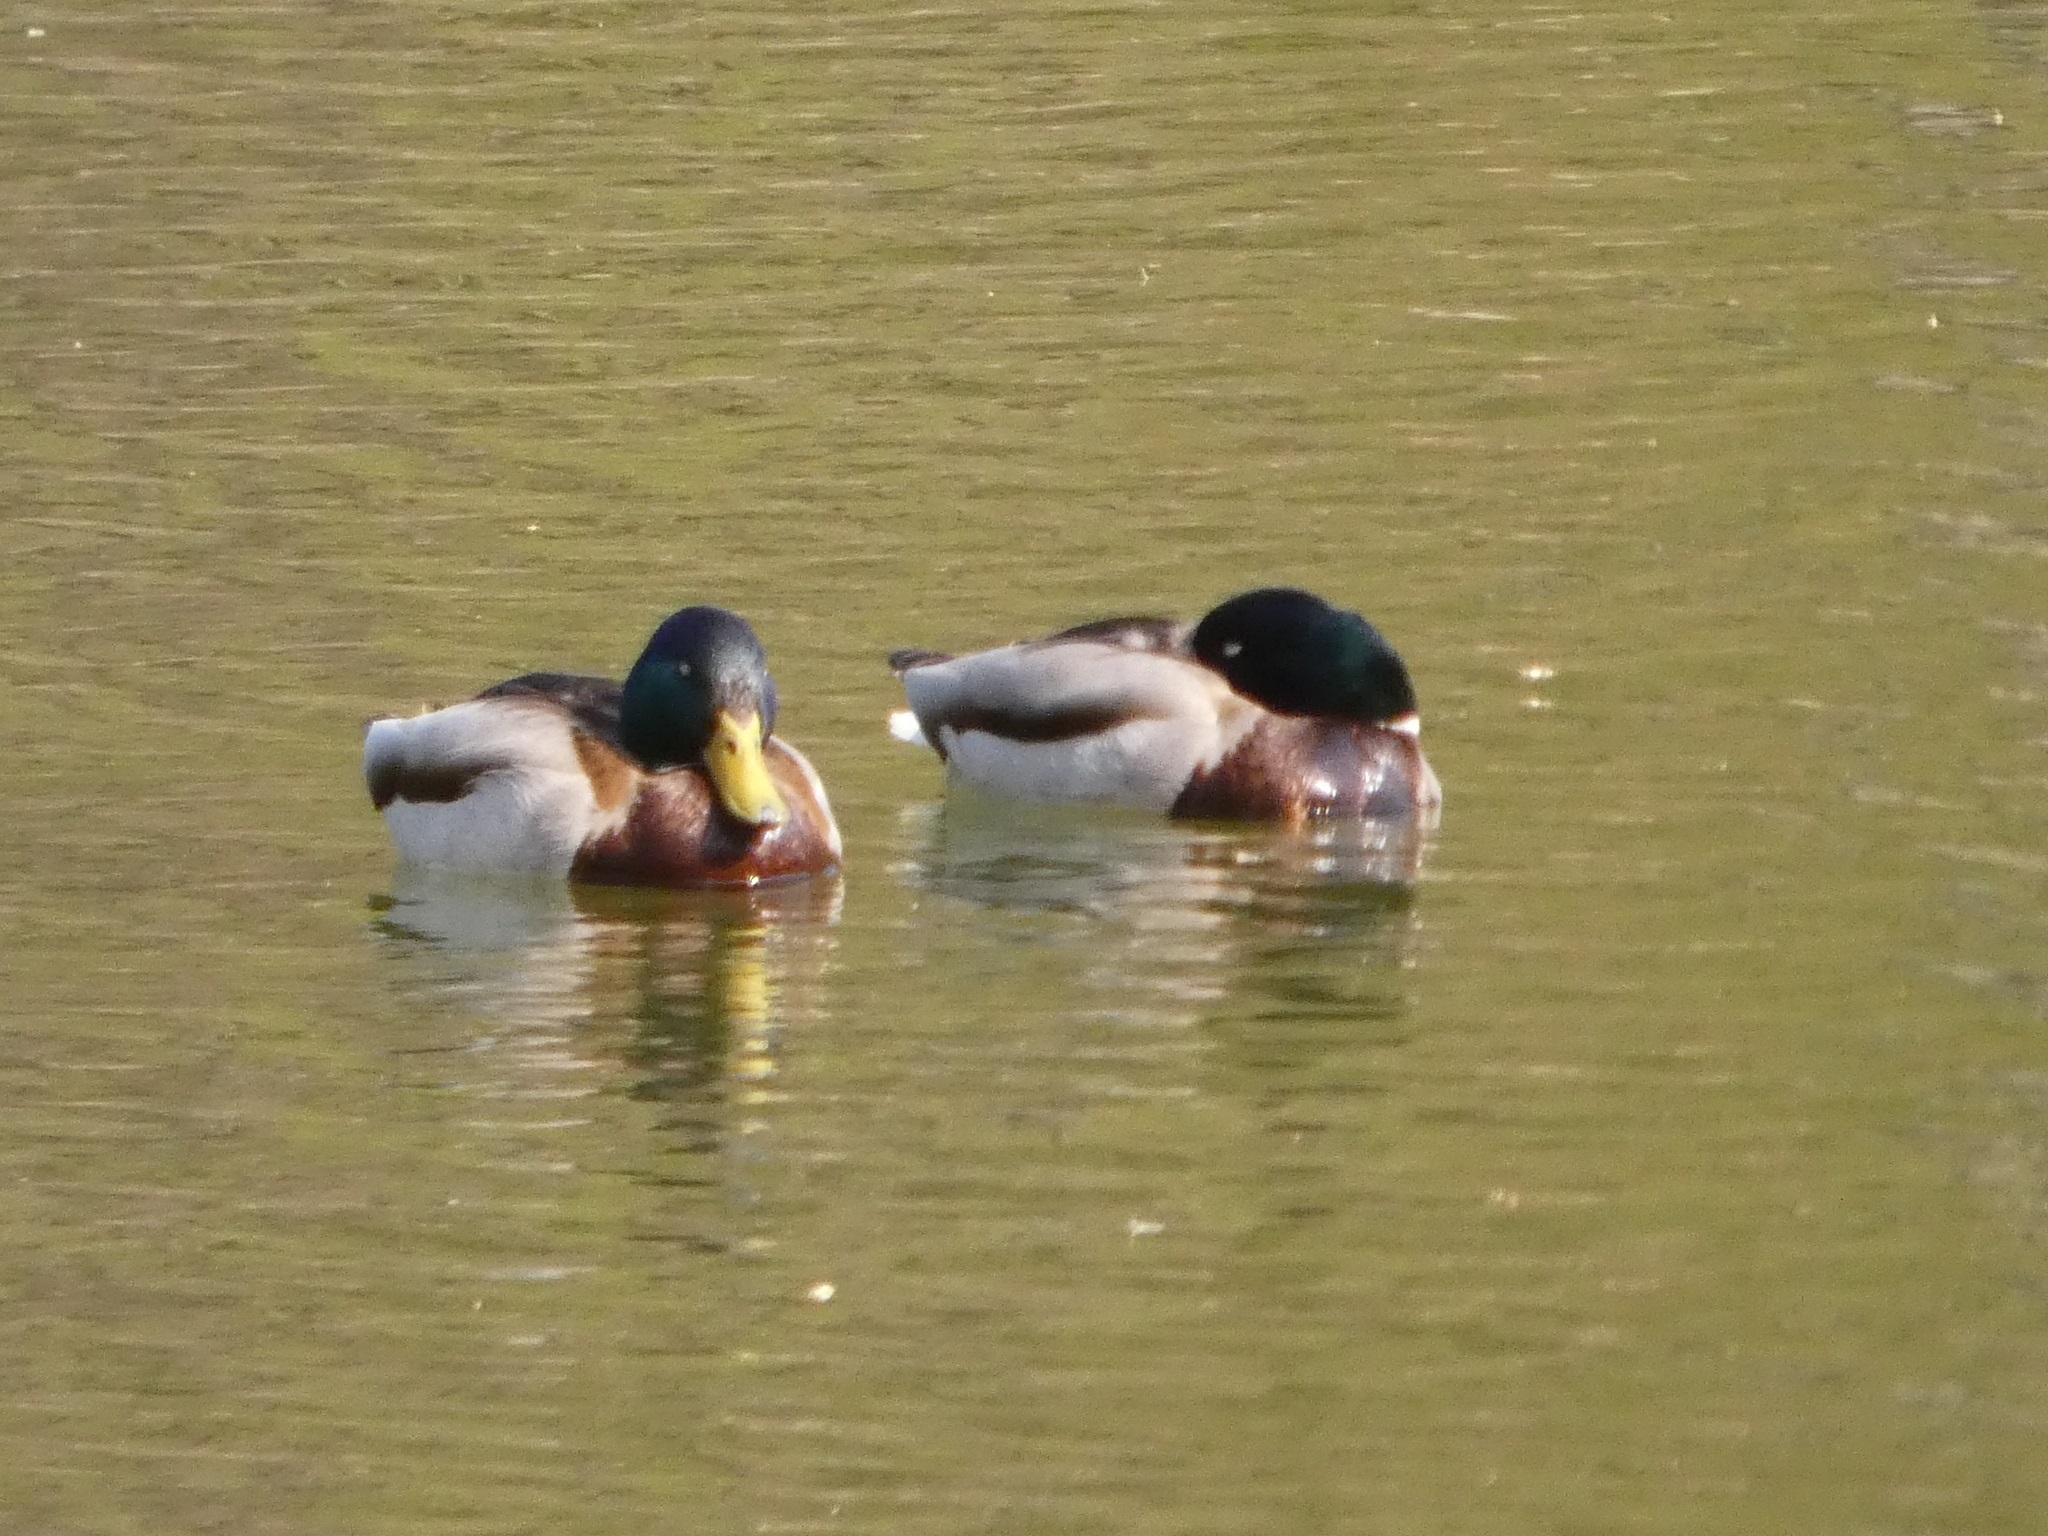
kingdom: Animalia
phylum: Chordata
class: Aves
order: Anseriformes
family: Anatidae
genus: Anas
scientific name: Anas platyrhynchos
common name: Mallard
